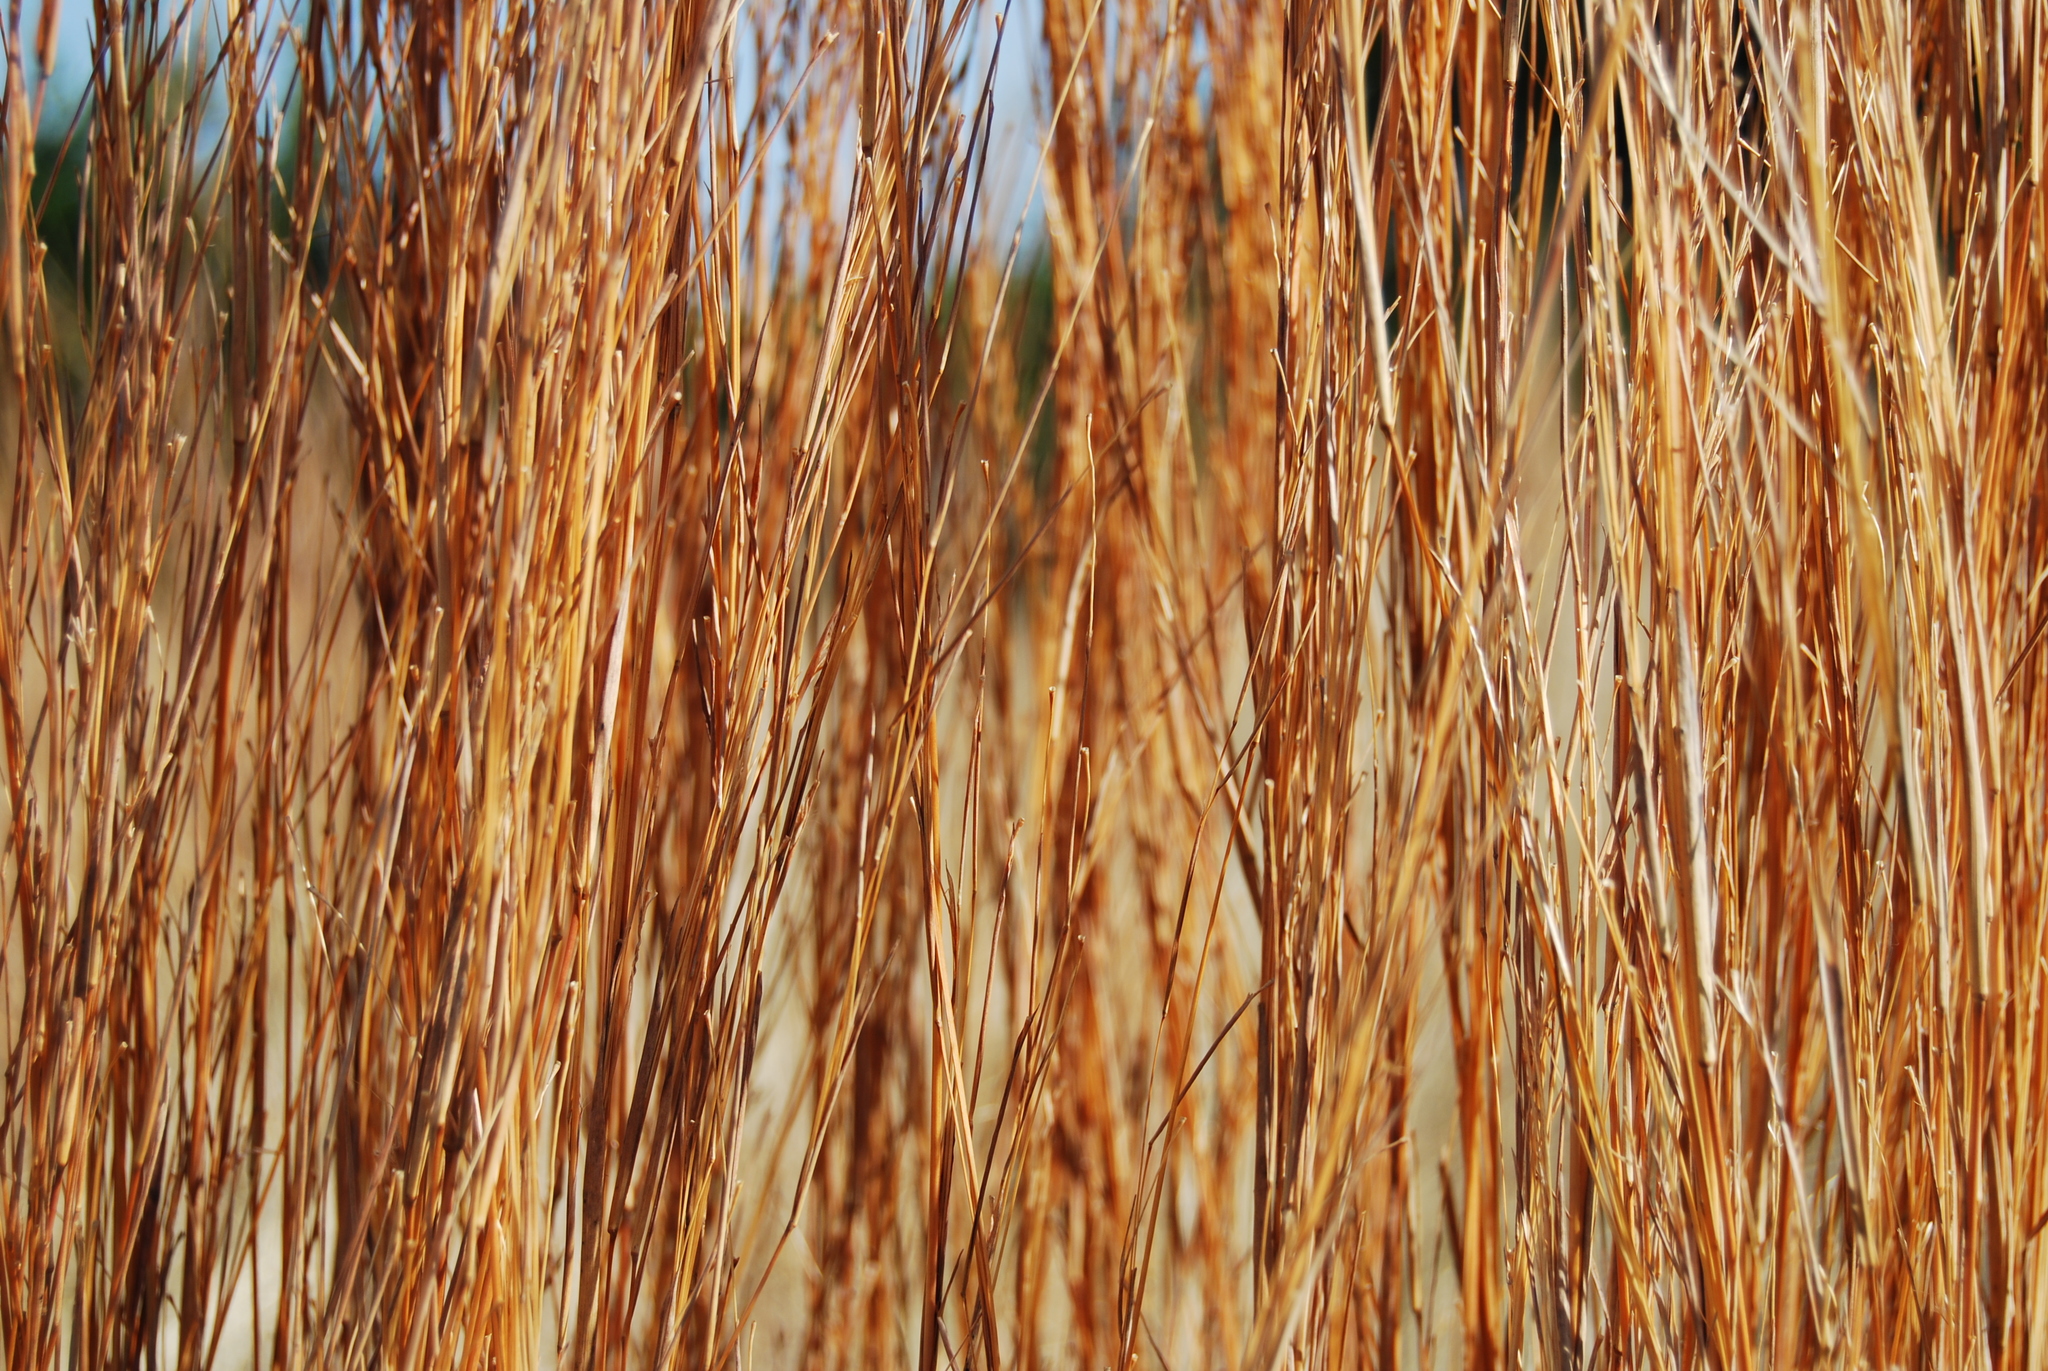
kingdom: Plantae
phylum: Tracheophyta
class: Liliopsida
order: Poales
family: Poaceae
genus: Schizachyrium
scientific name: Schizachyrium scoparium
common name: Little bluestem
